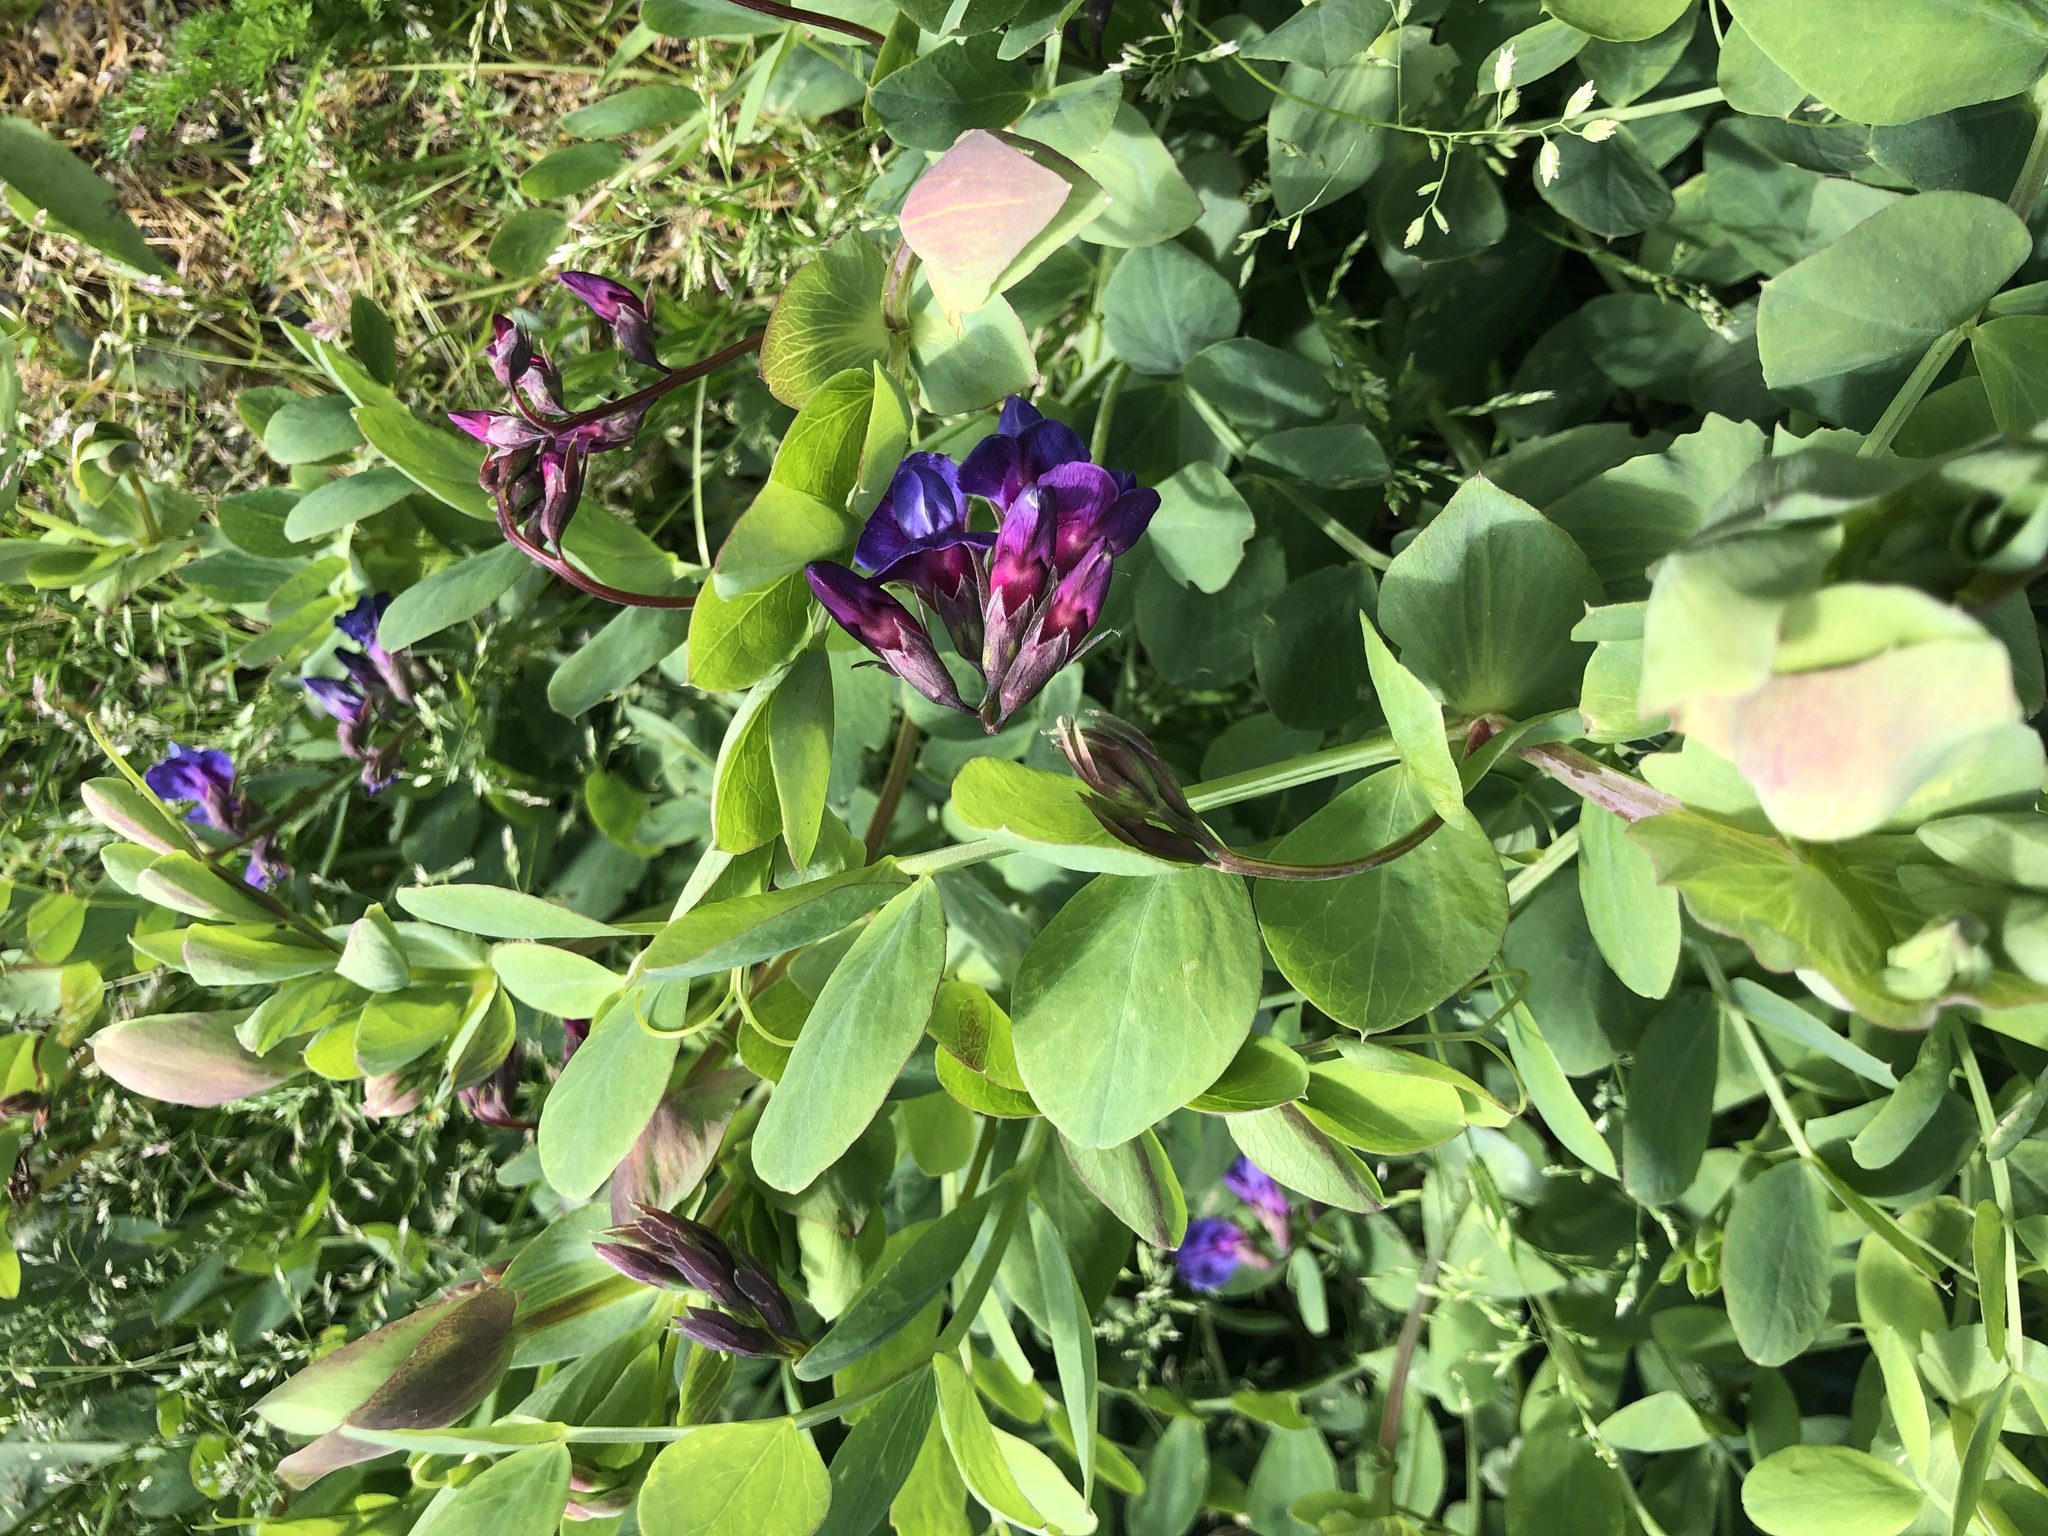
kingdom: Plantae
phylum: Tracheophyta
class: Magnoliopsida
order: Fabales
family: Fabaceae
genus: Lathyrus
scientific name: Lathyrus japonicus
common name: Sea pea
